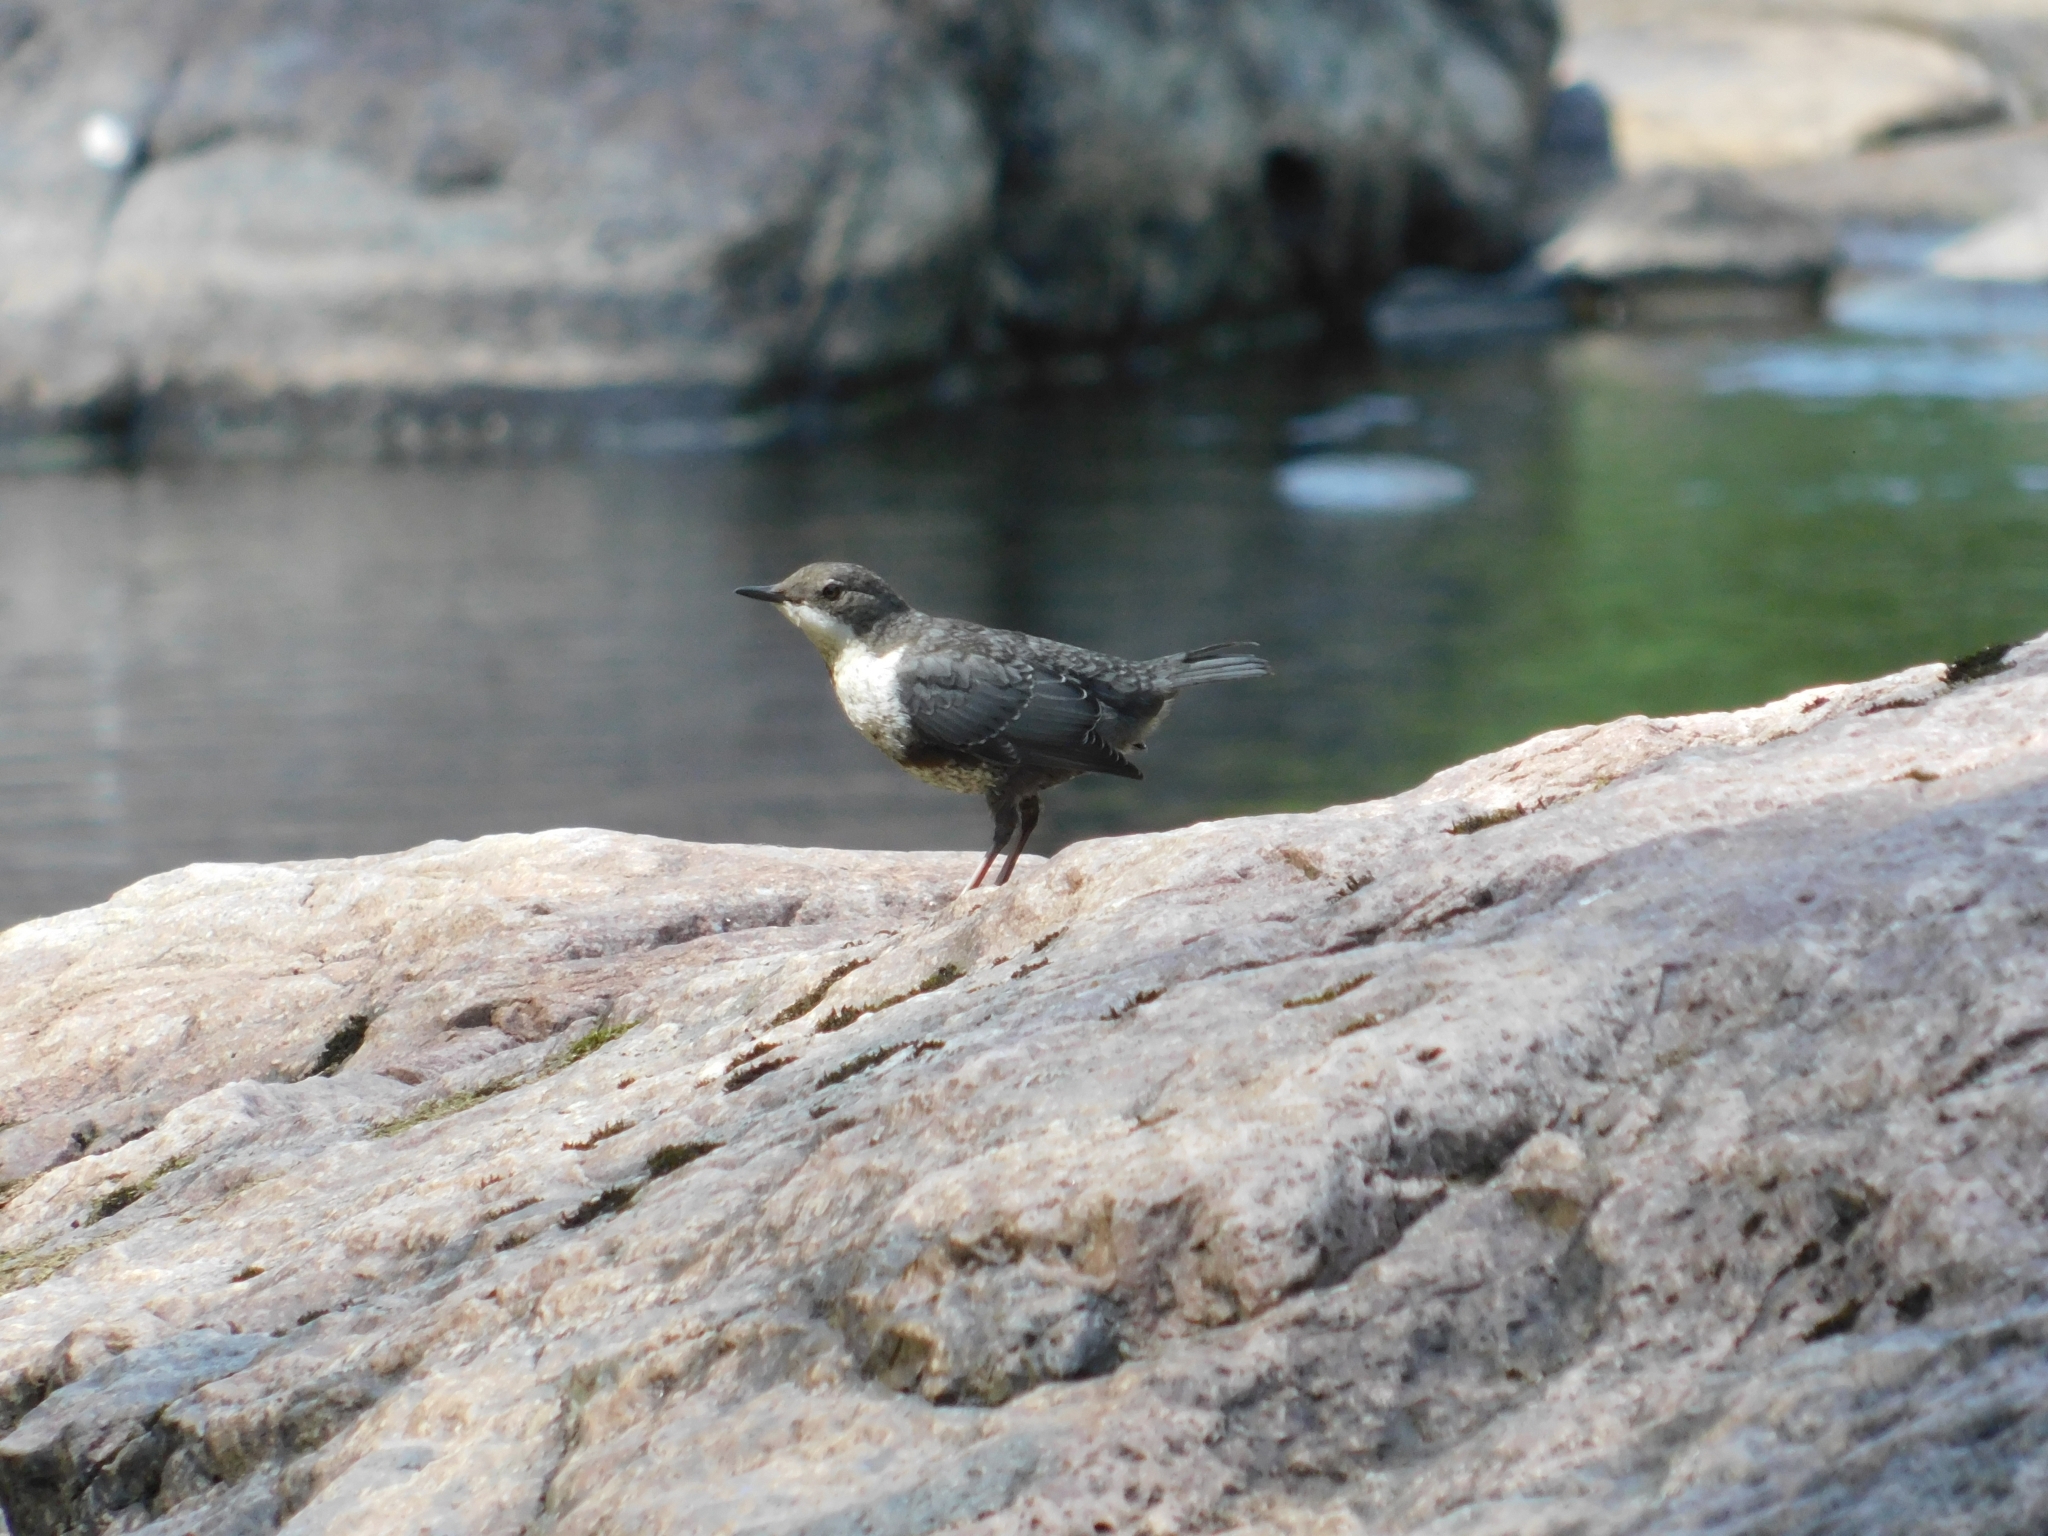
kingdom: Animalia
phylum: Chordata
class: Aves
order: Passeriformes
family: Cinclidae
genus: Cinclus
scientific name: Cinclus cinclus
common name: White-throated dipper
